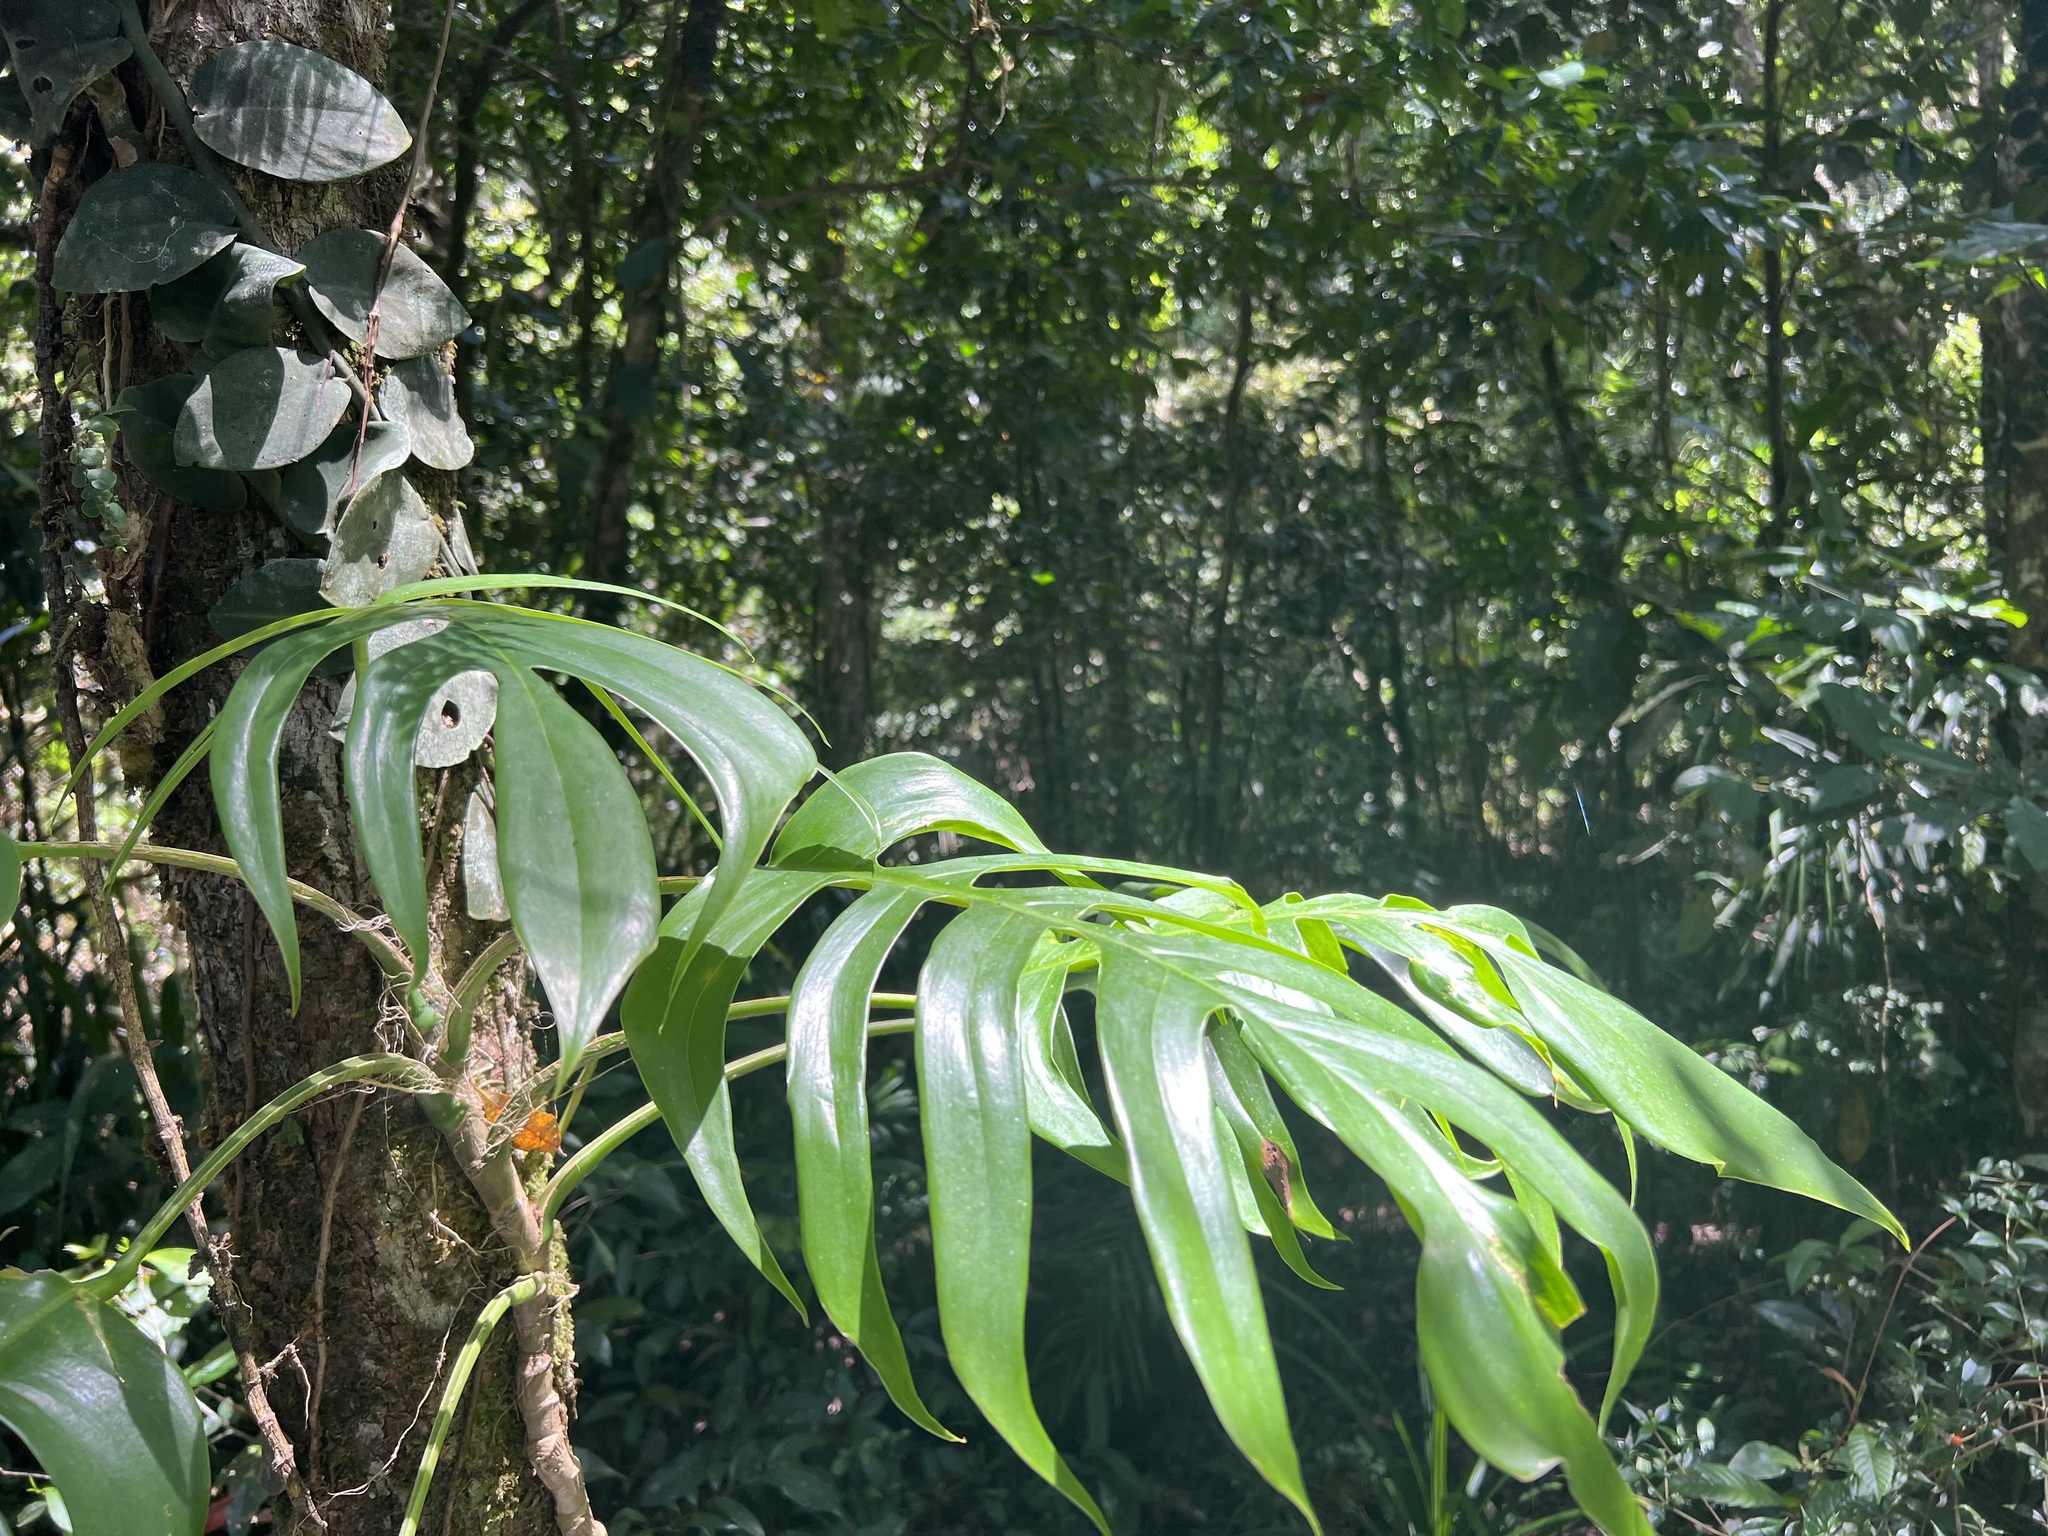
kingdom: Plantae
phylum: Tracheophyta
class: Liliopsida
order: Alismatales
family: Araceae
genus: Epipremnum
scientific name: Epipremnum pinnatum
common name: Centipede tongavine
